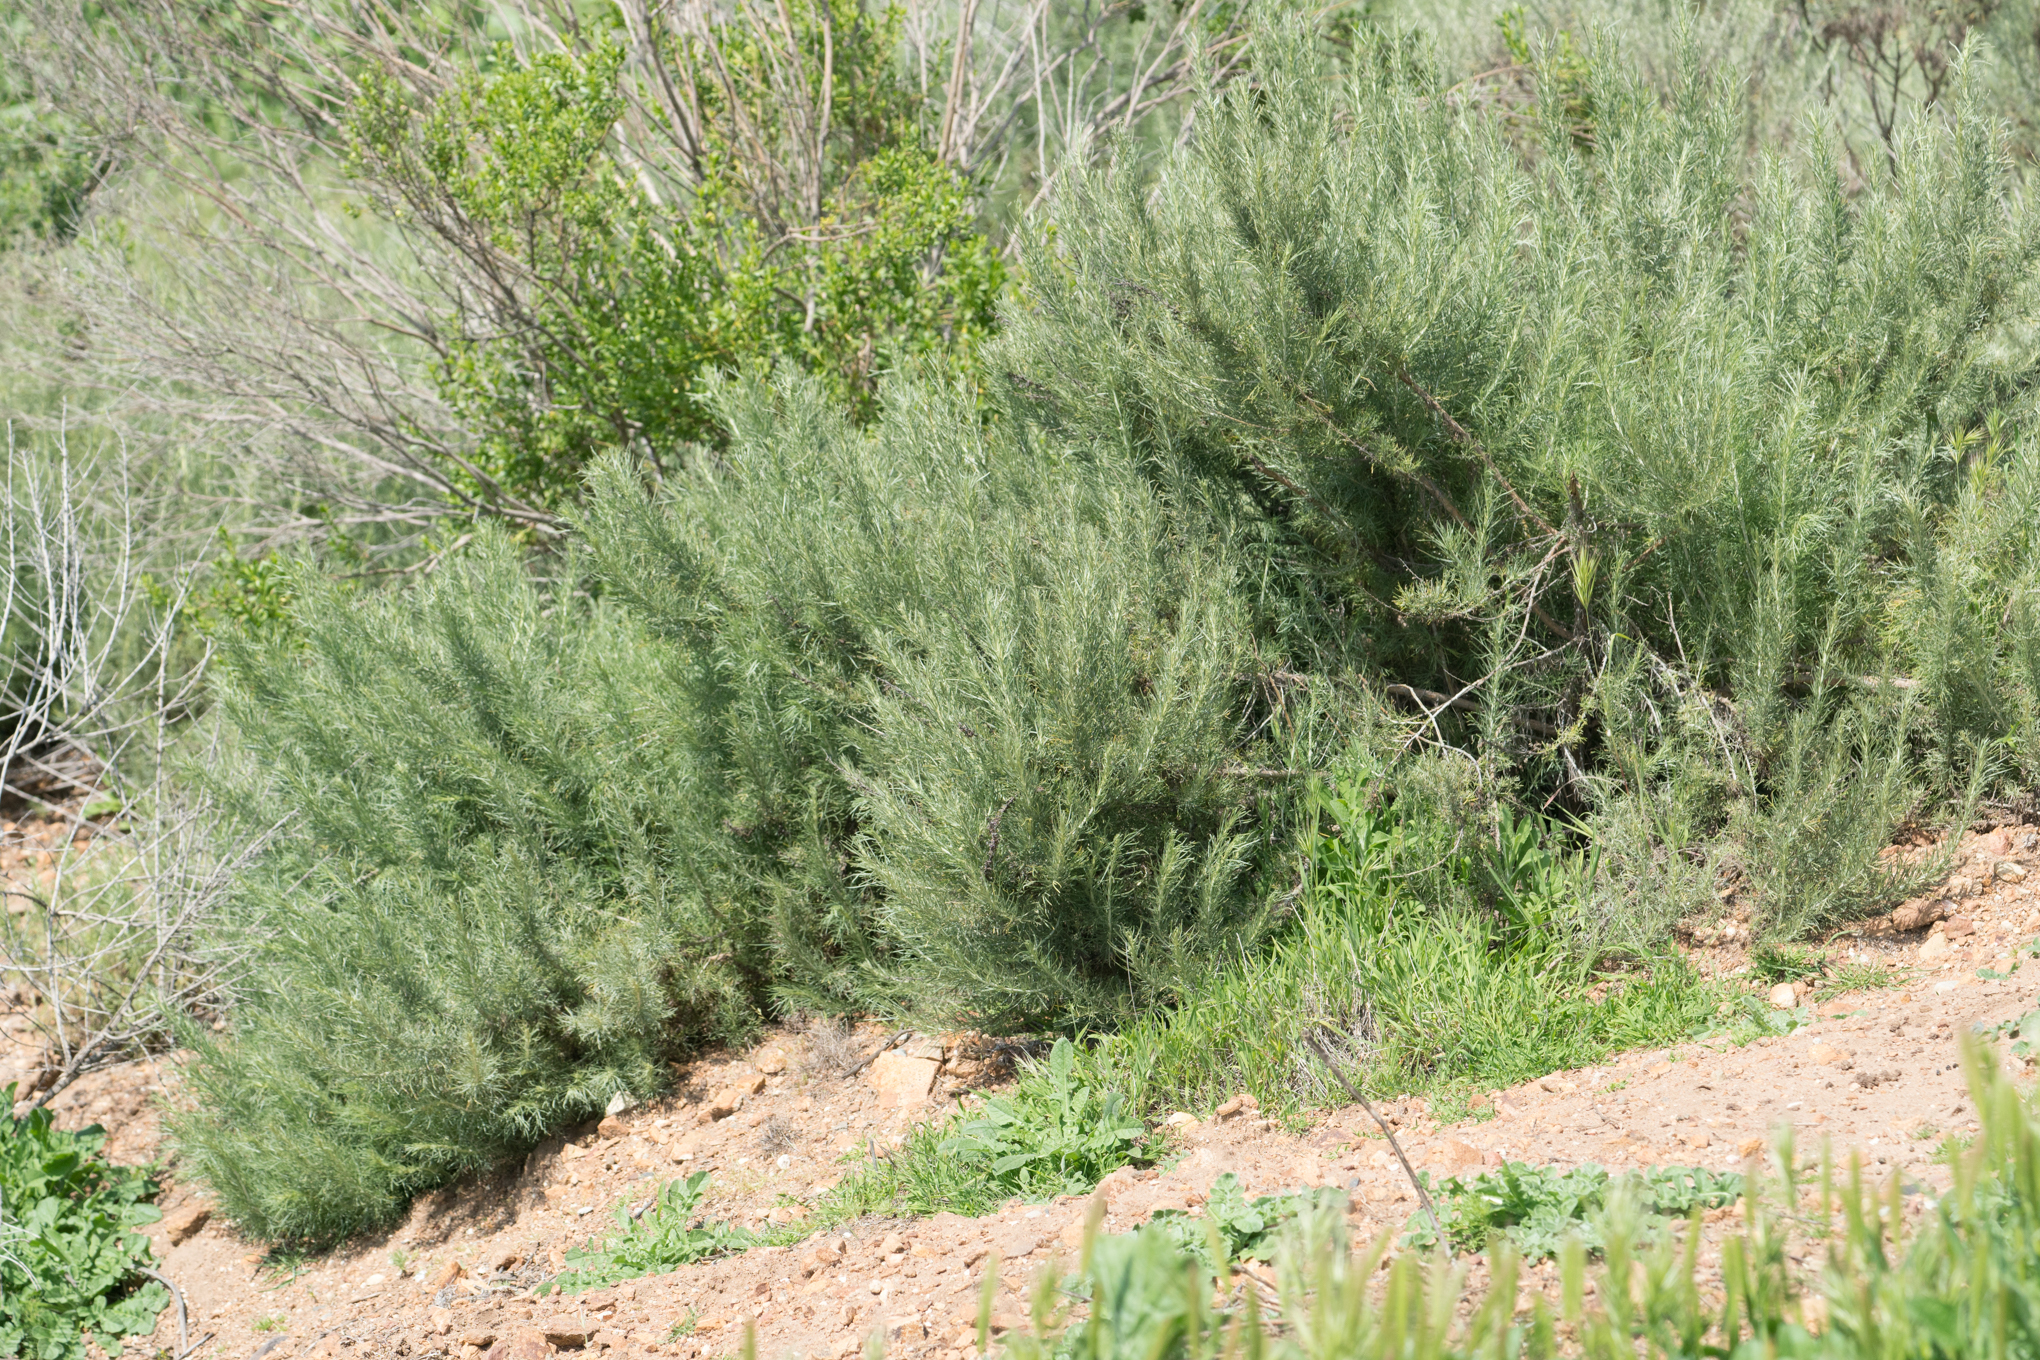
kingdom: Plantae
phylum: Tracheophyta
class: Magnoliopsida
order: Asterales
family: Asteraceae
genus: Artemisia
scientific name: Artemisia californica
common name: California sagebrush
